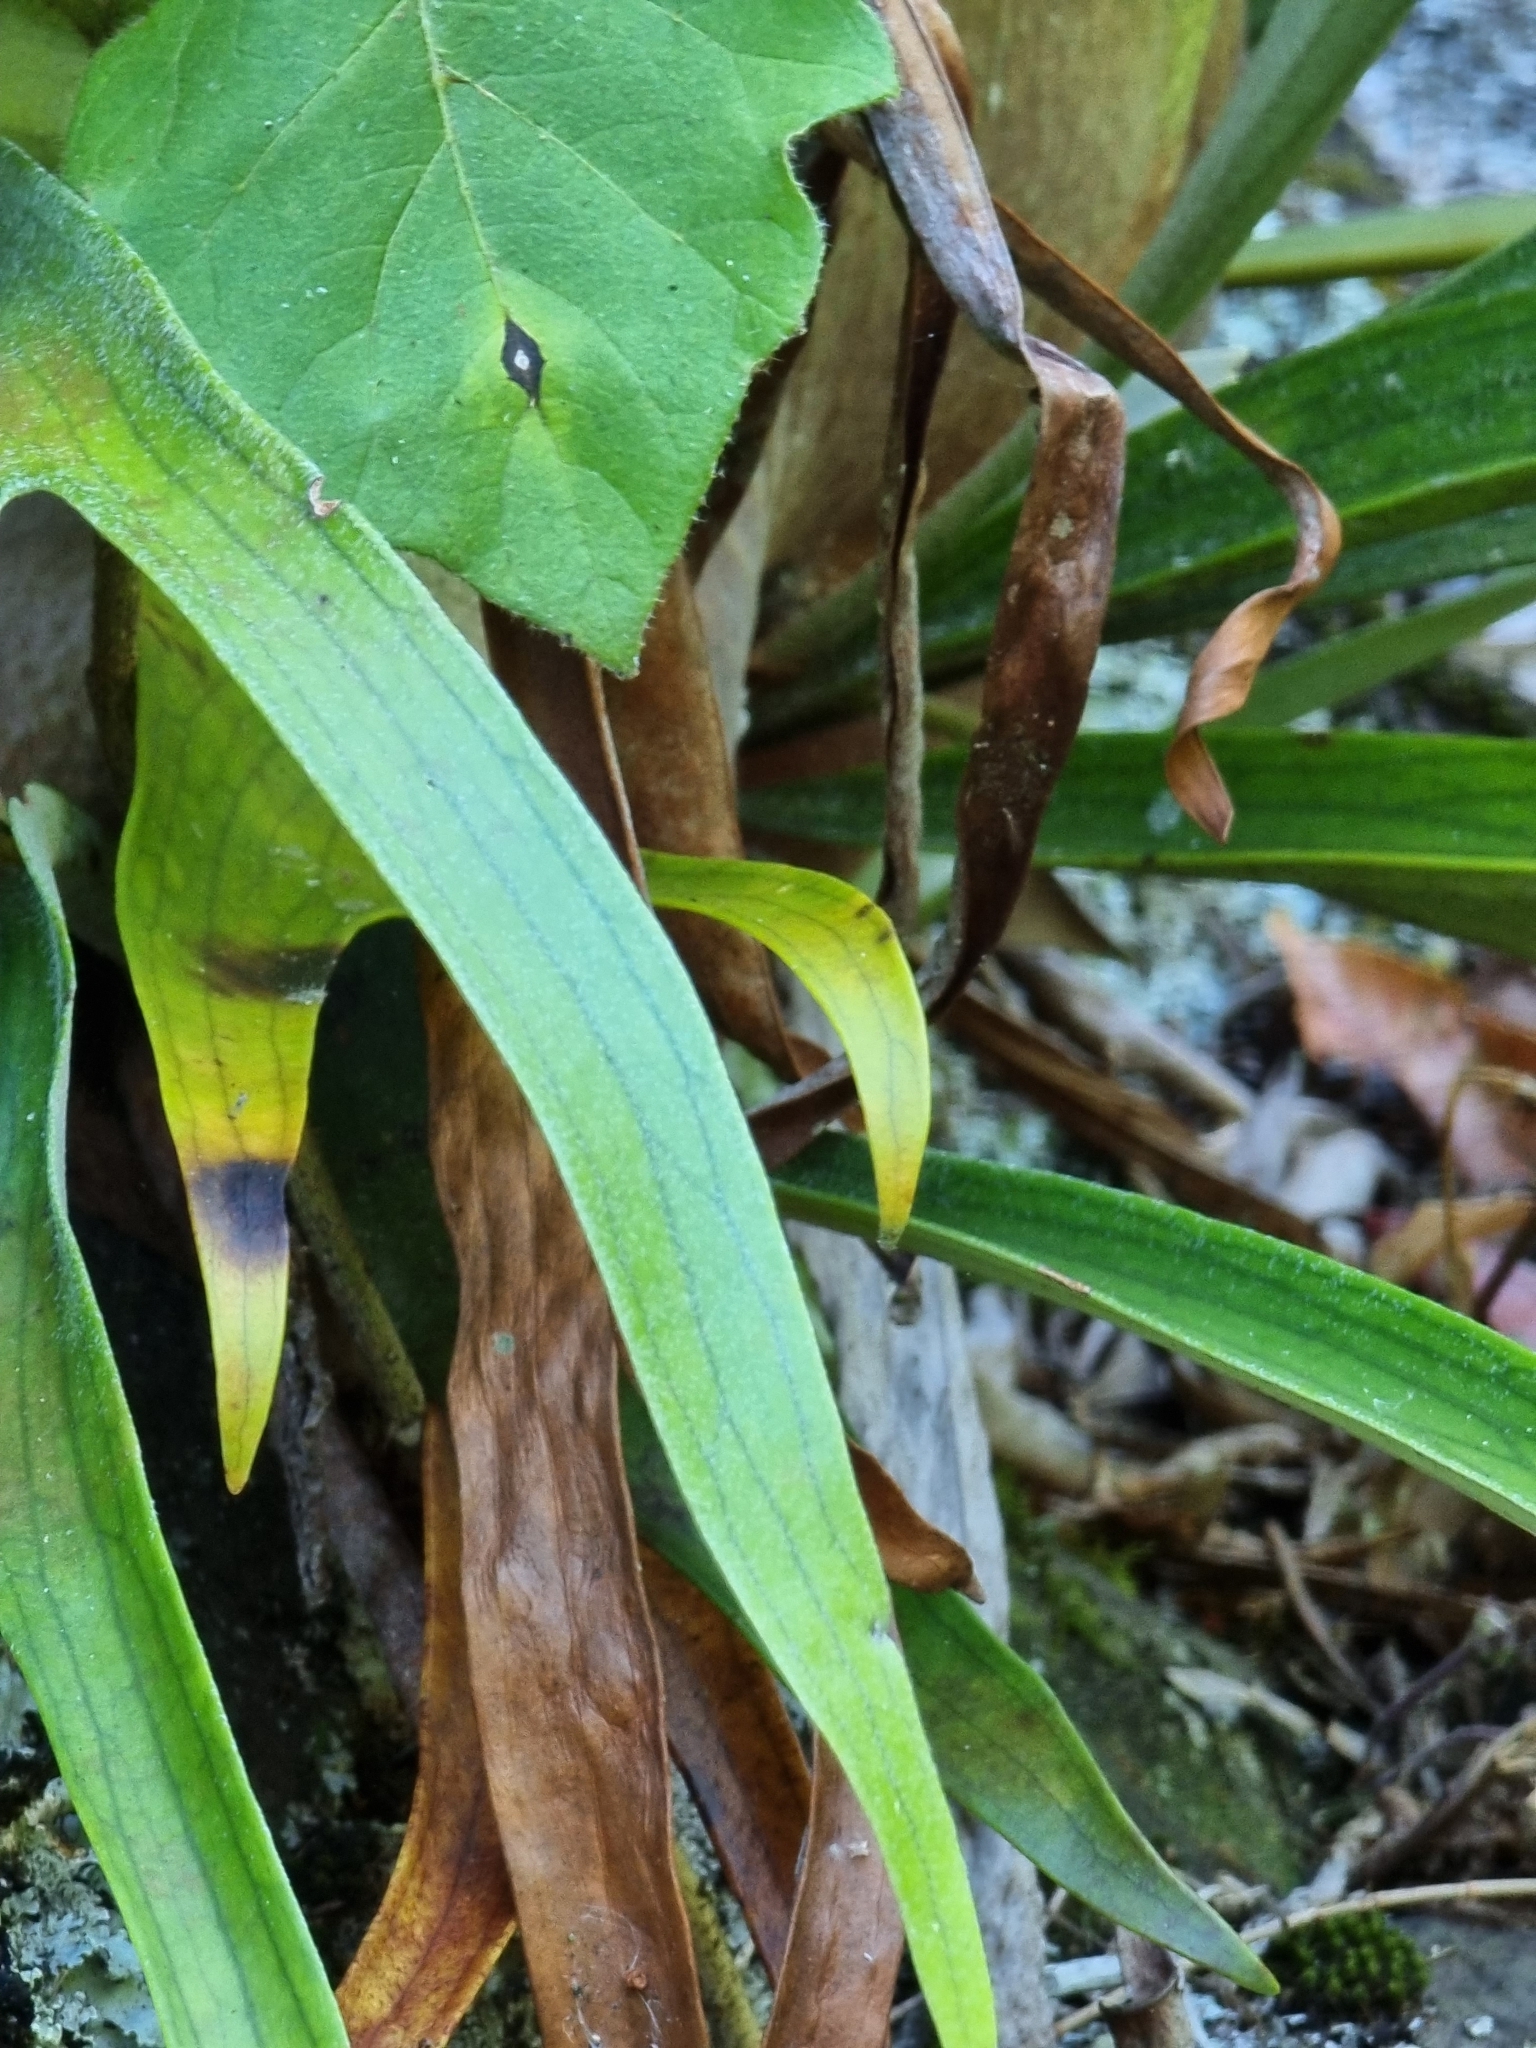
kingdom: Plantae
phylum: Tracheophyta
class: Polypodiopsida
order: Polypodiales
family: Polypodiaceae
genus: Platycerium
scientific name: Platycerium superbum
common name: Staghorn fern
